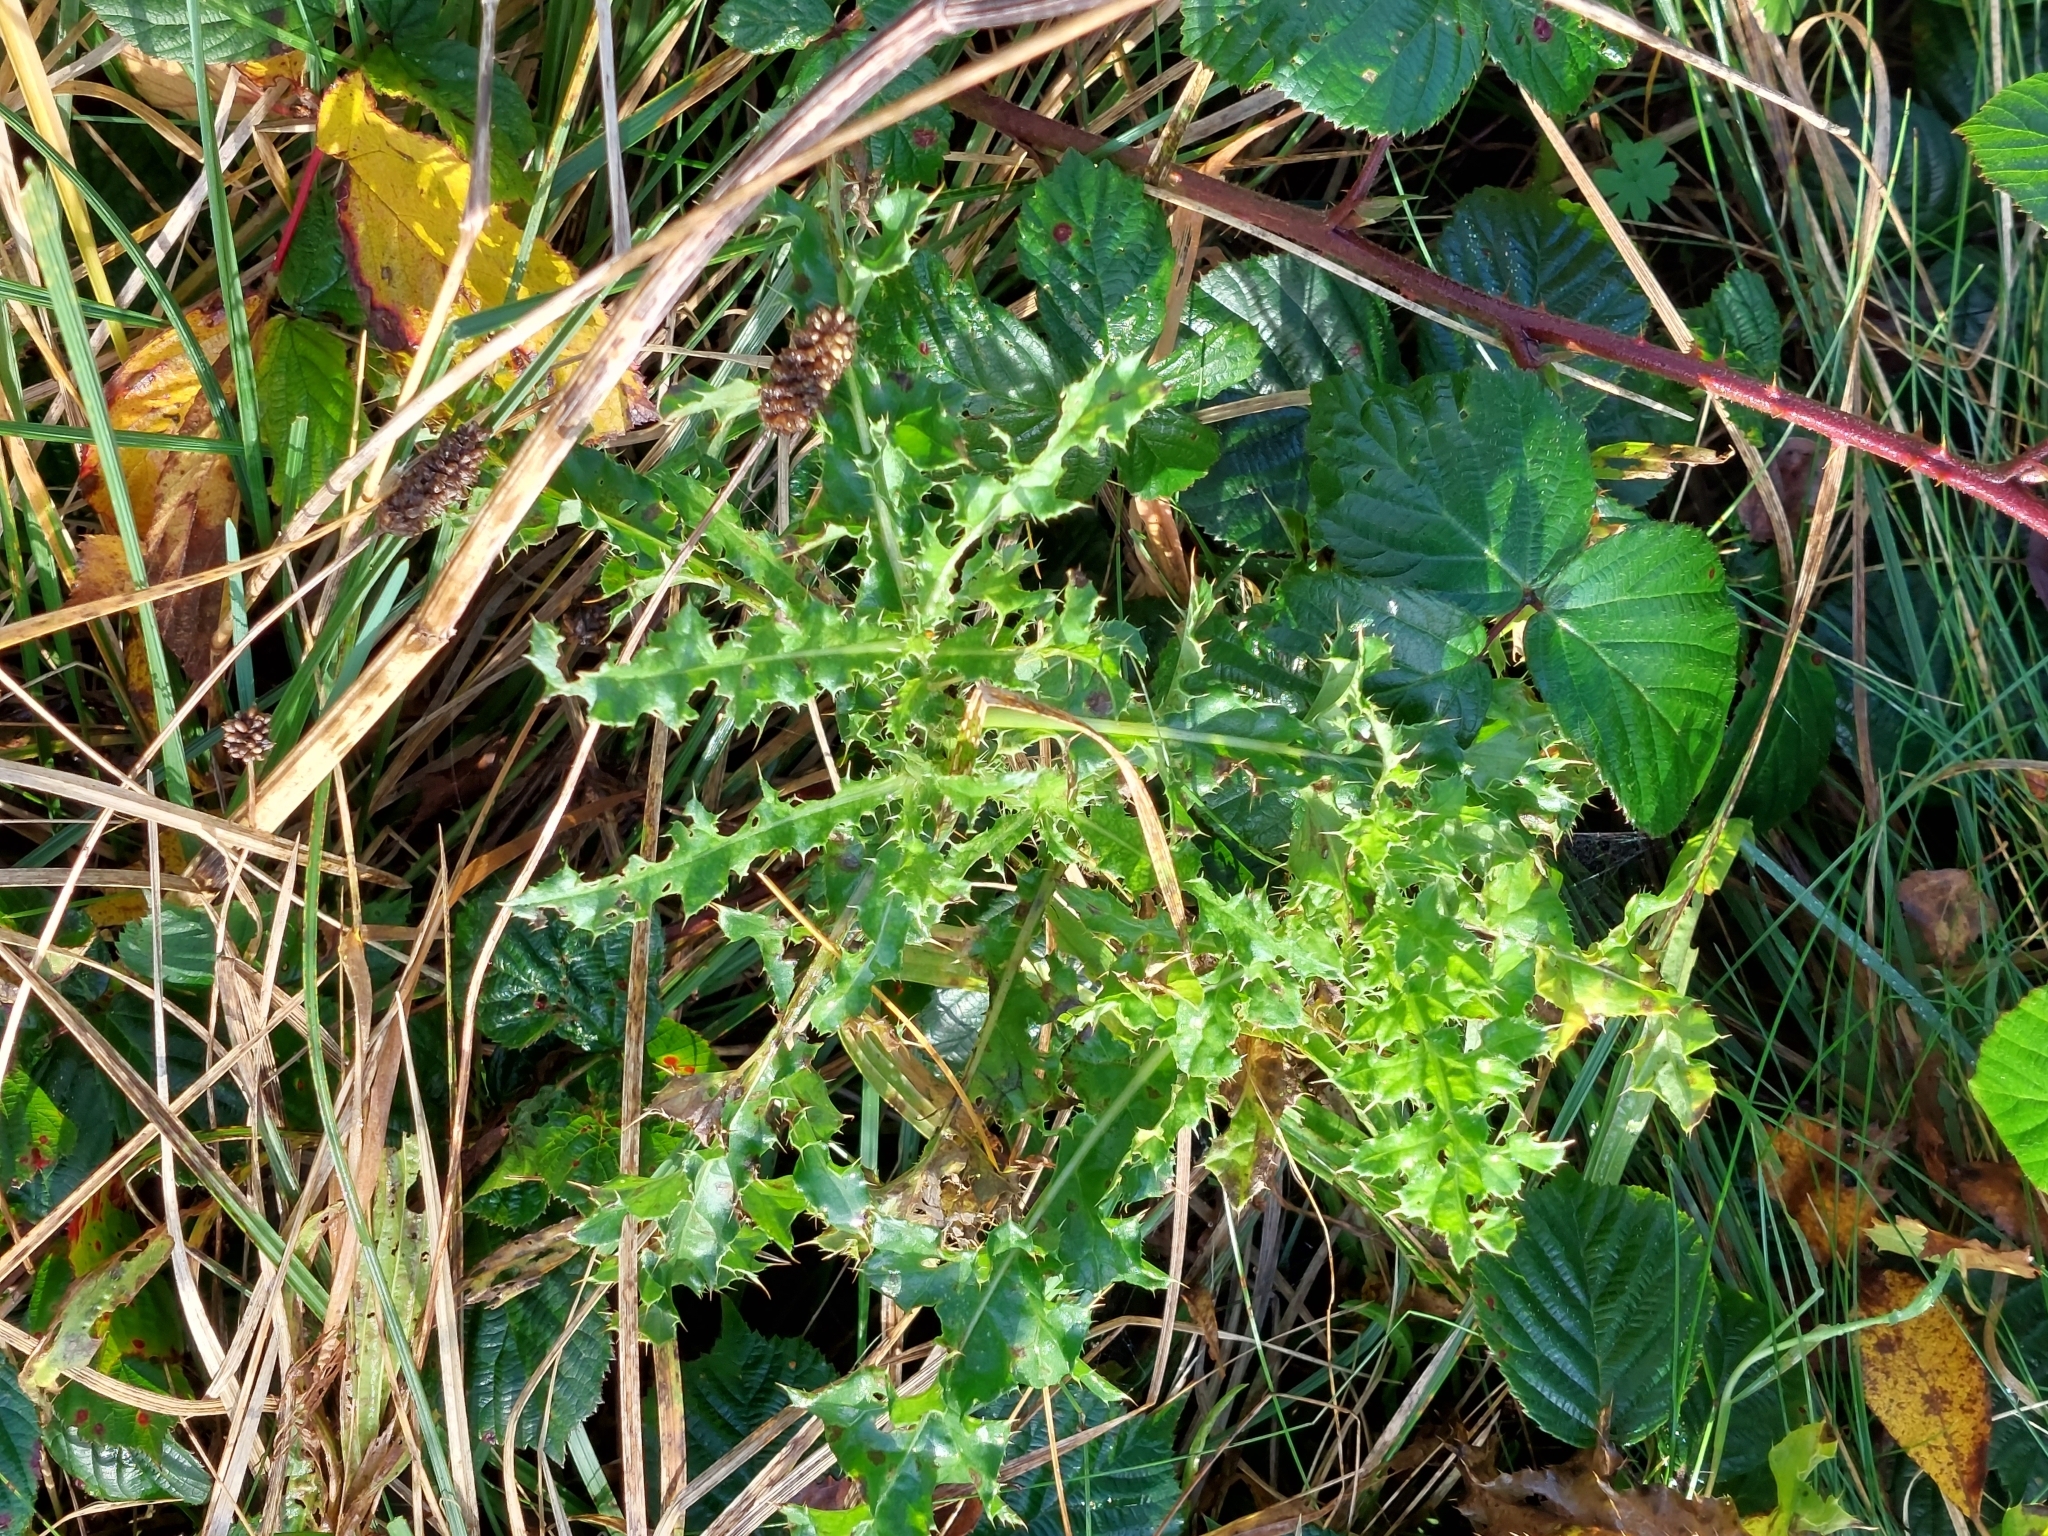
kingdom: Plantae
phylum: Tracheophyta
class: Magnoliopsida
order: Asterales
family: Asteraceae
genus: Cirsium
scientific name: Cirsium arvense
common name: Creeping thistle
